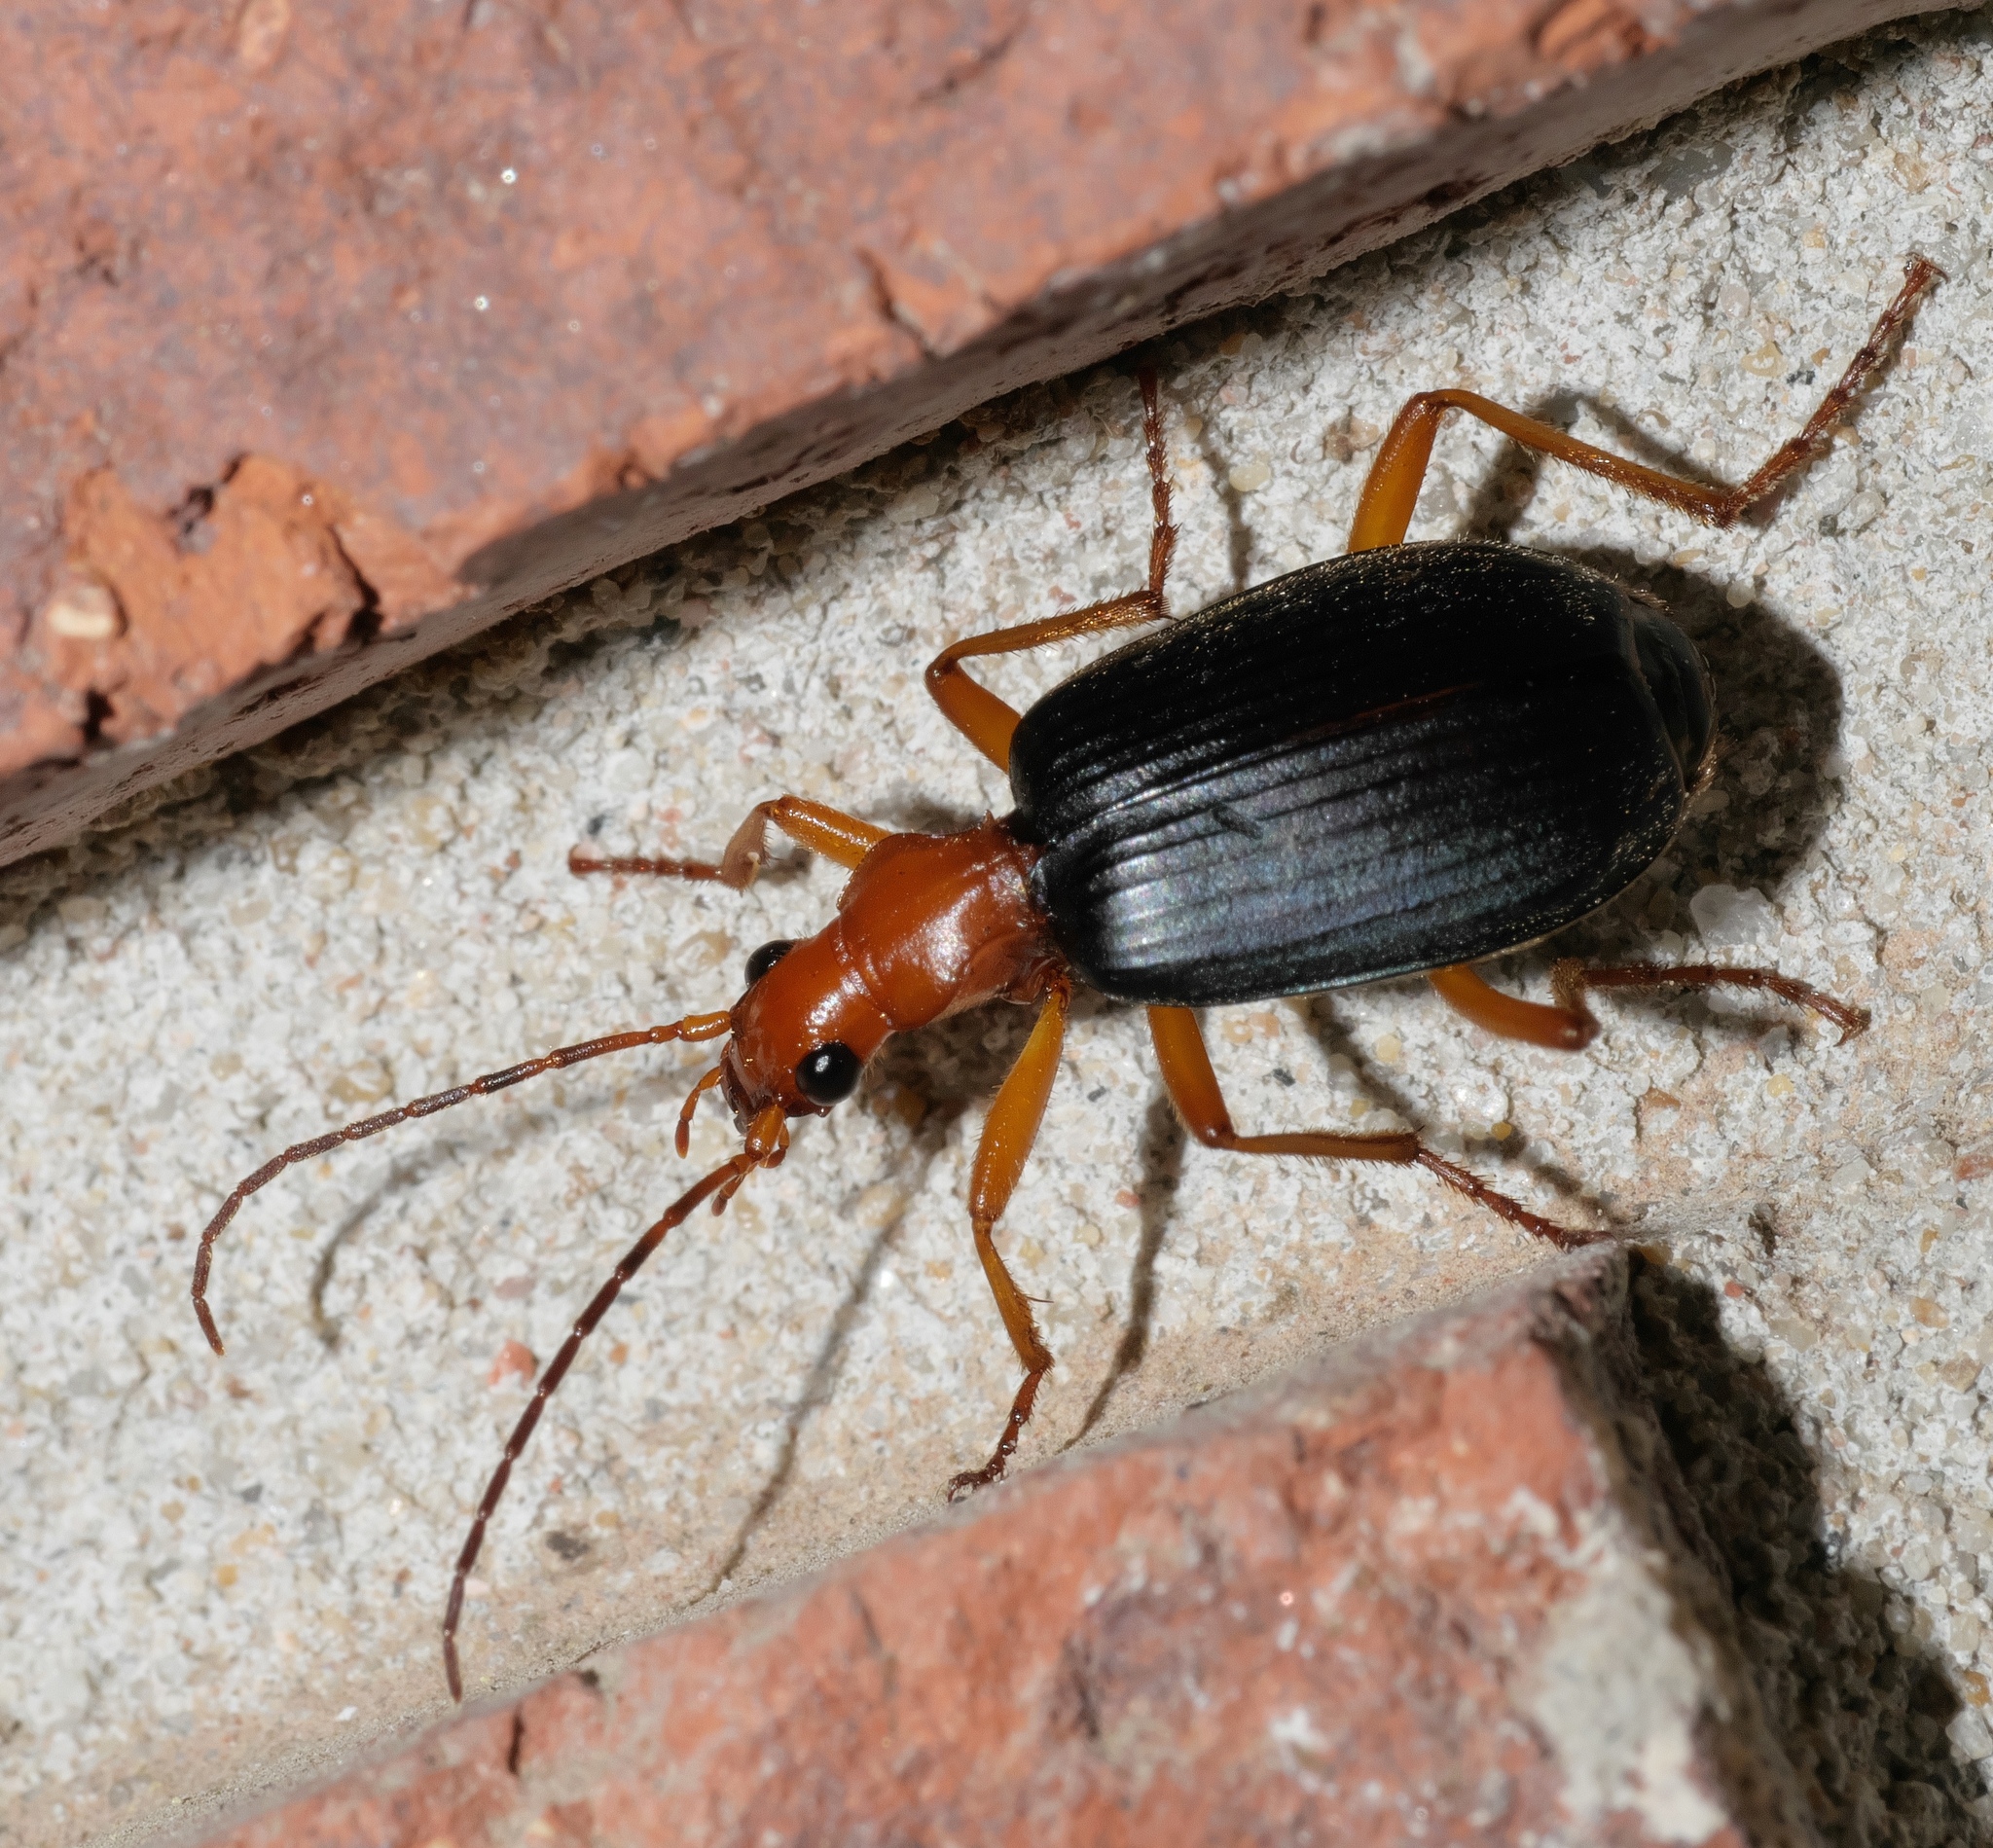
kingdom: Animalia
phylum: Arthropoda
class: Insecta
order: Coleoptera
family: Carabidae
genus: Brachinus
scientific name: Brachinus tenuicollis
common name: Narrow-necked little bombardier beetle
